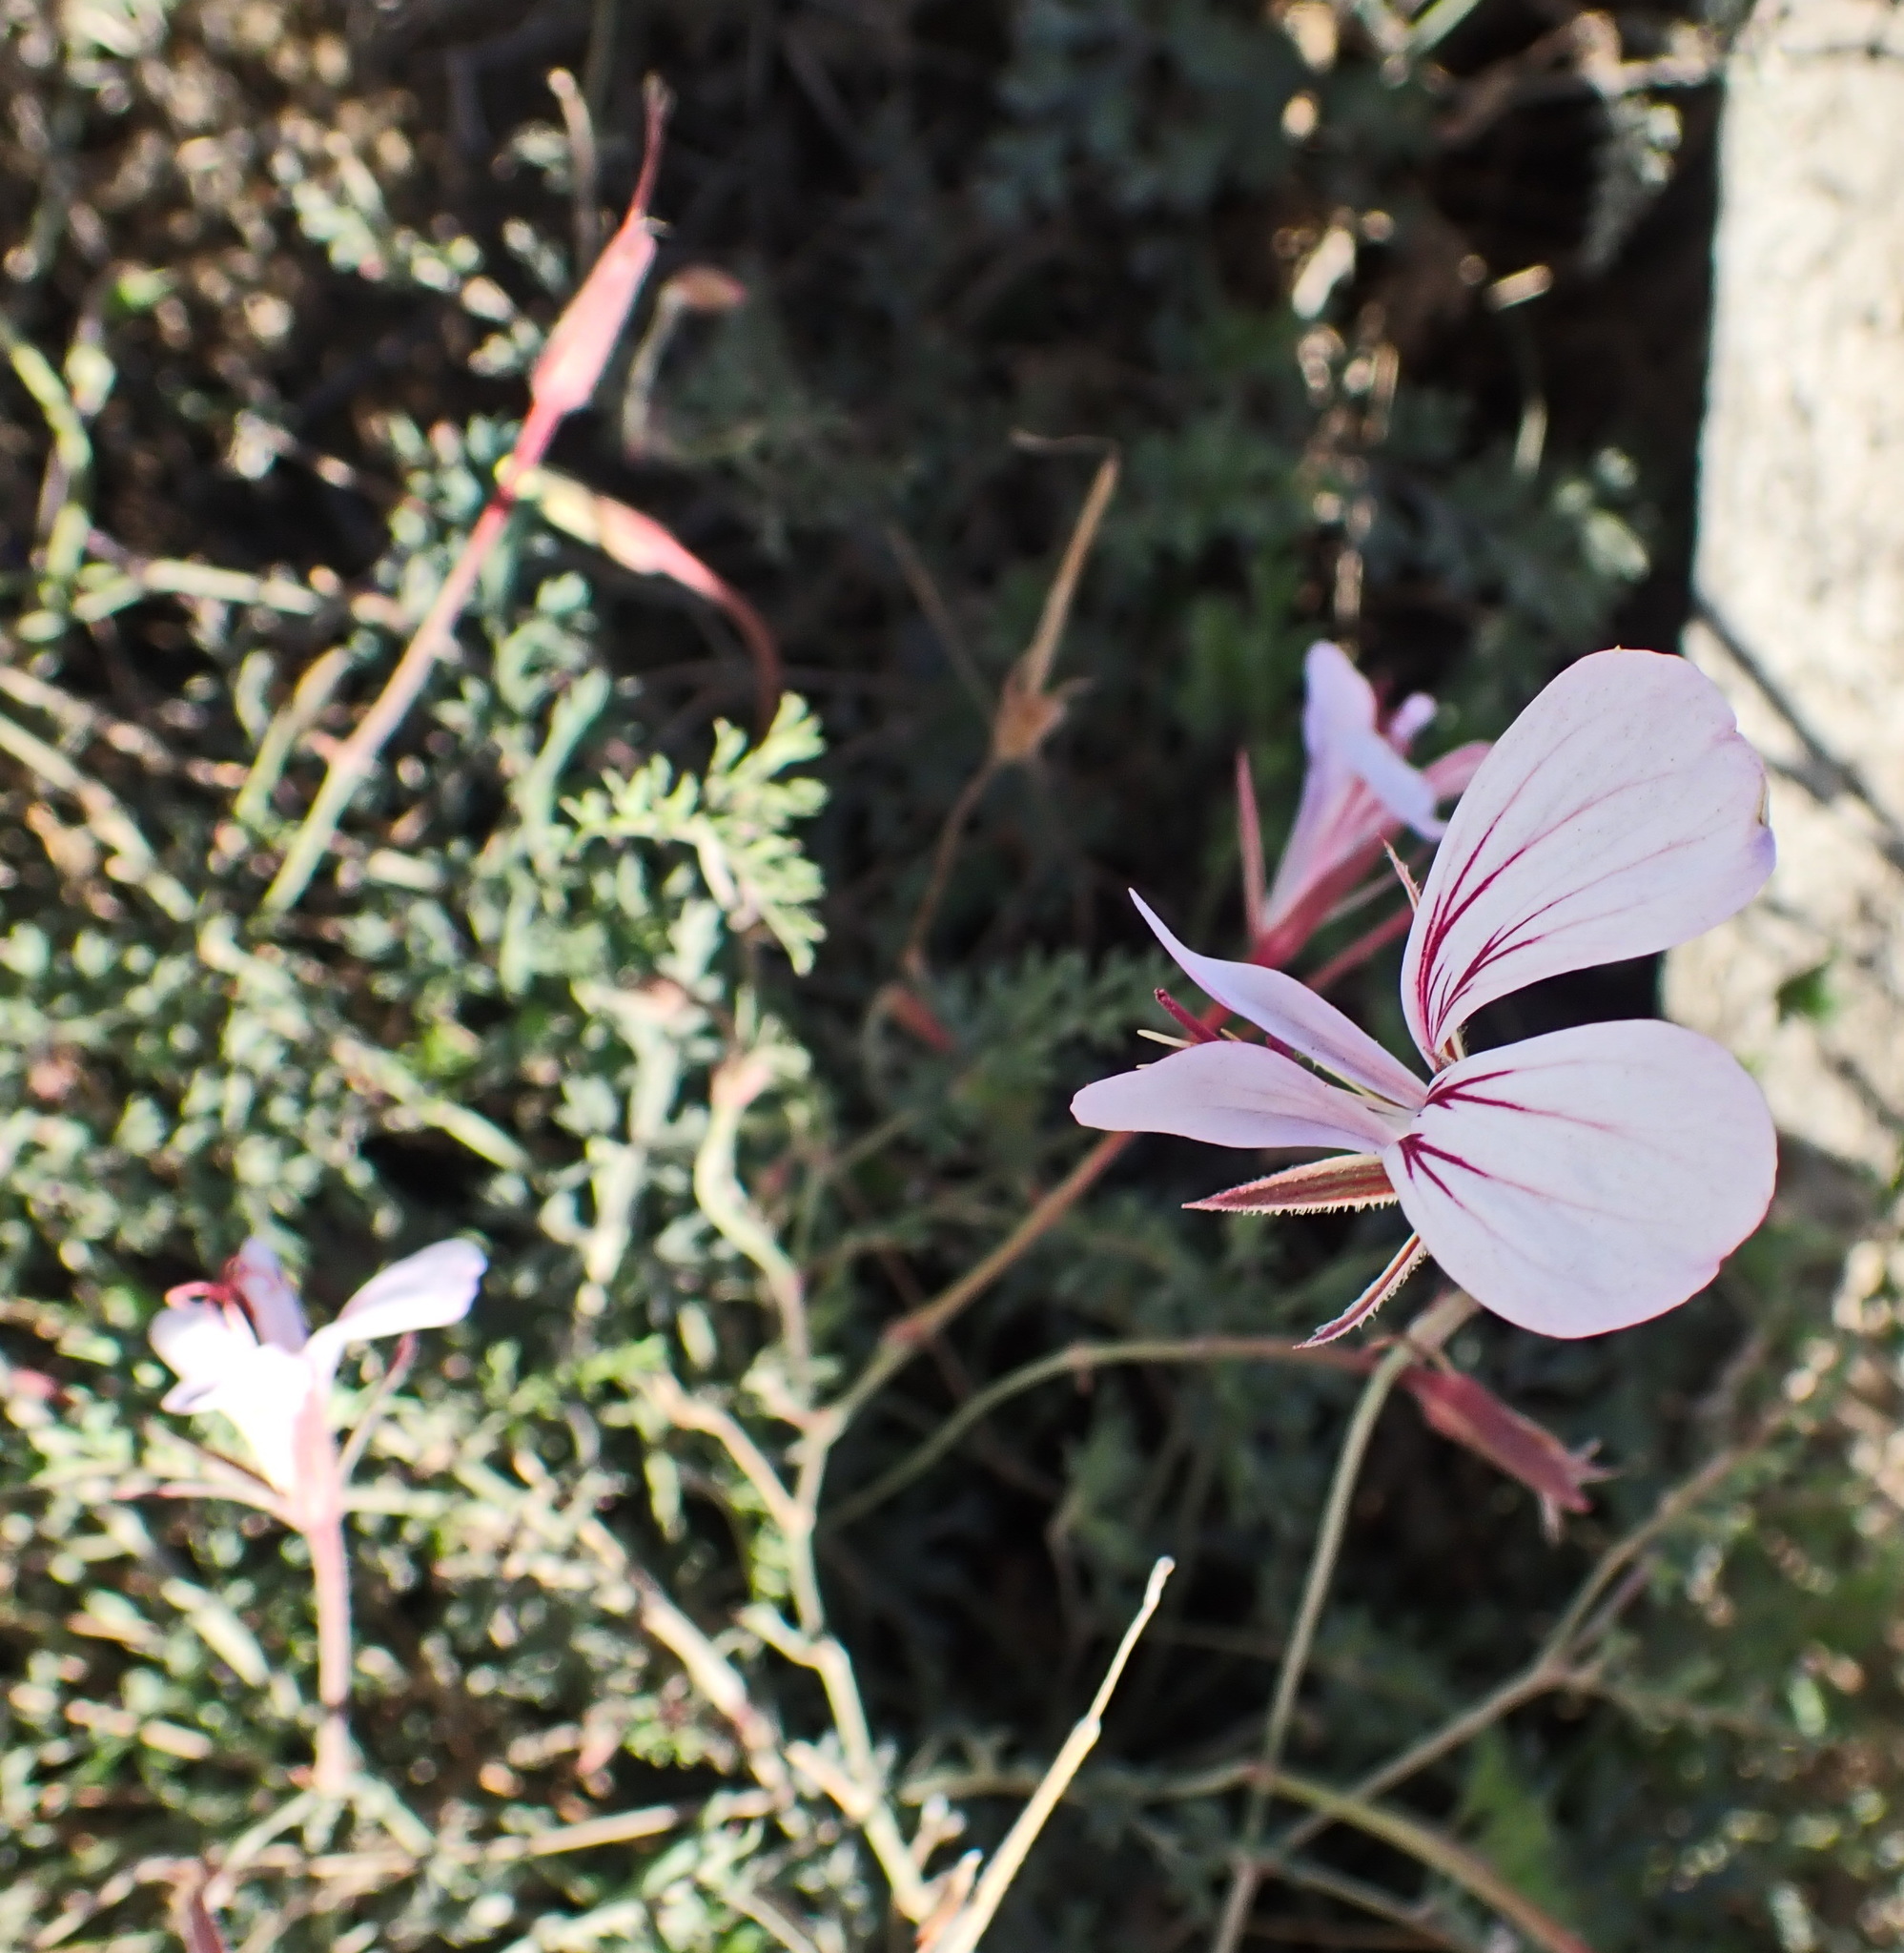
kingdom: Plantae
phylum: Tracheophyta
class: Magnoliopsida
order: Geraniales
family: Geraniaceae
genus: Pelargonium
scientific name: Pelargonium caucalifolium
